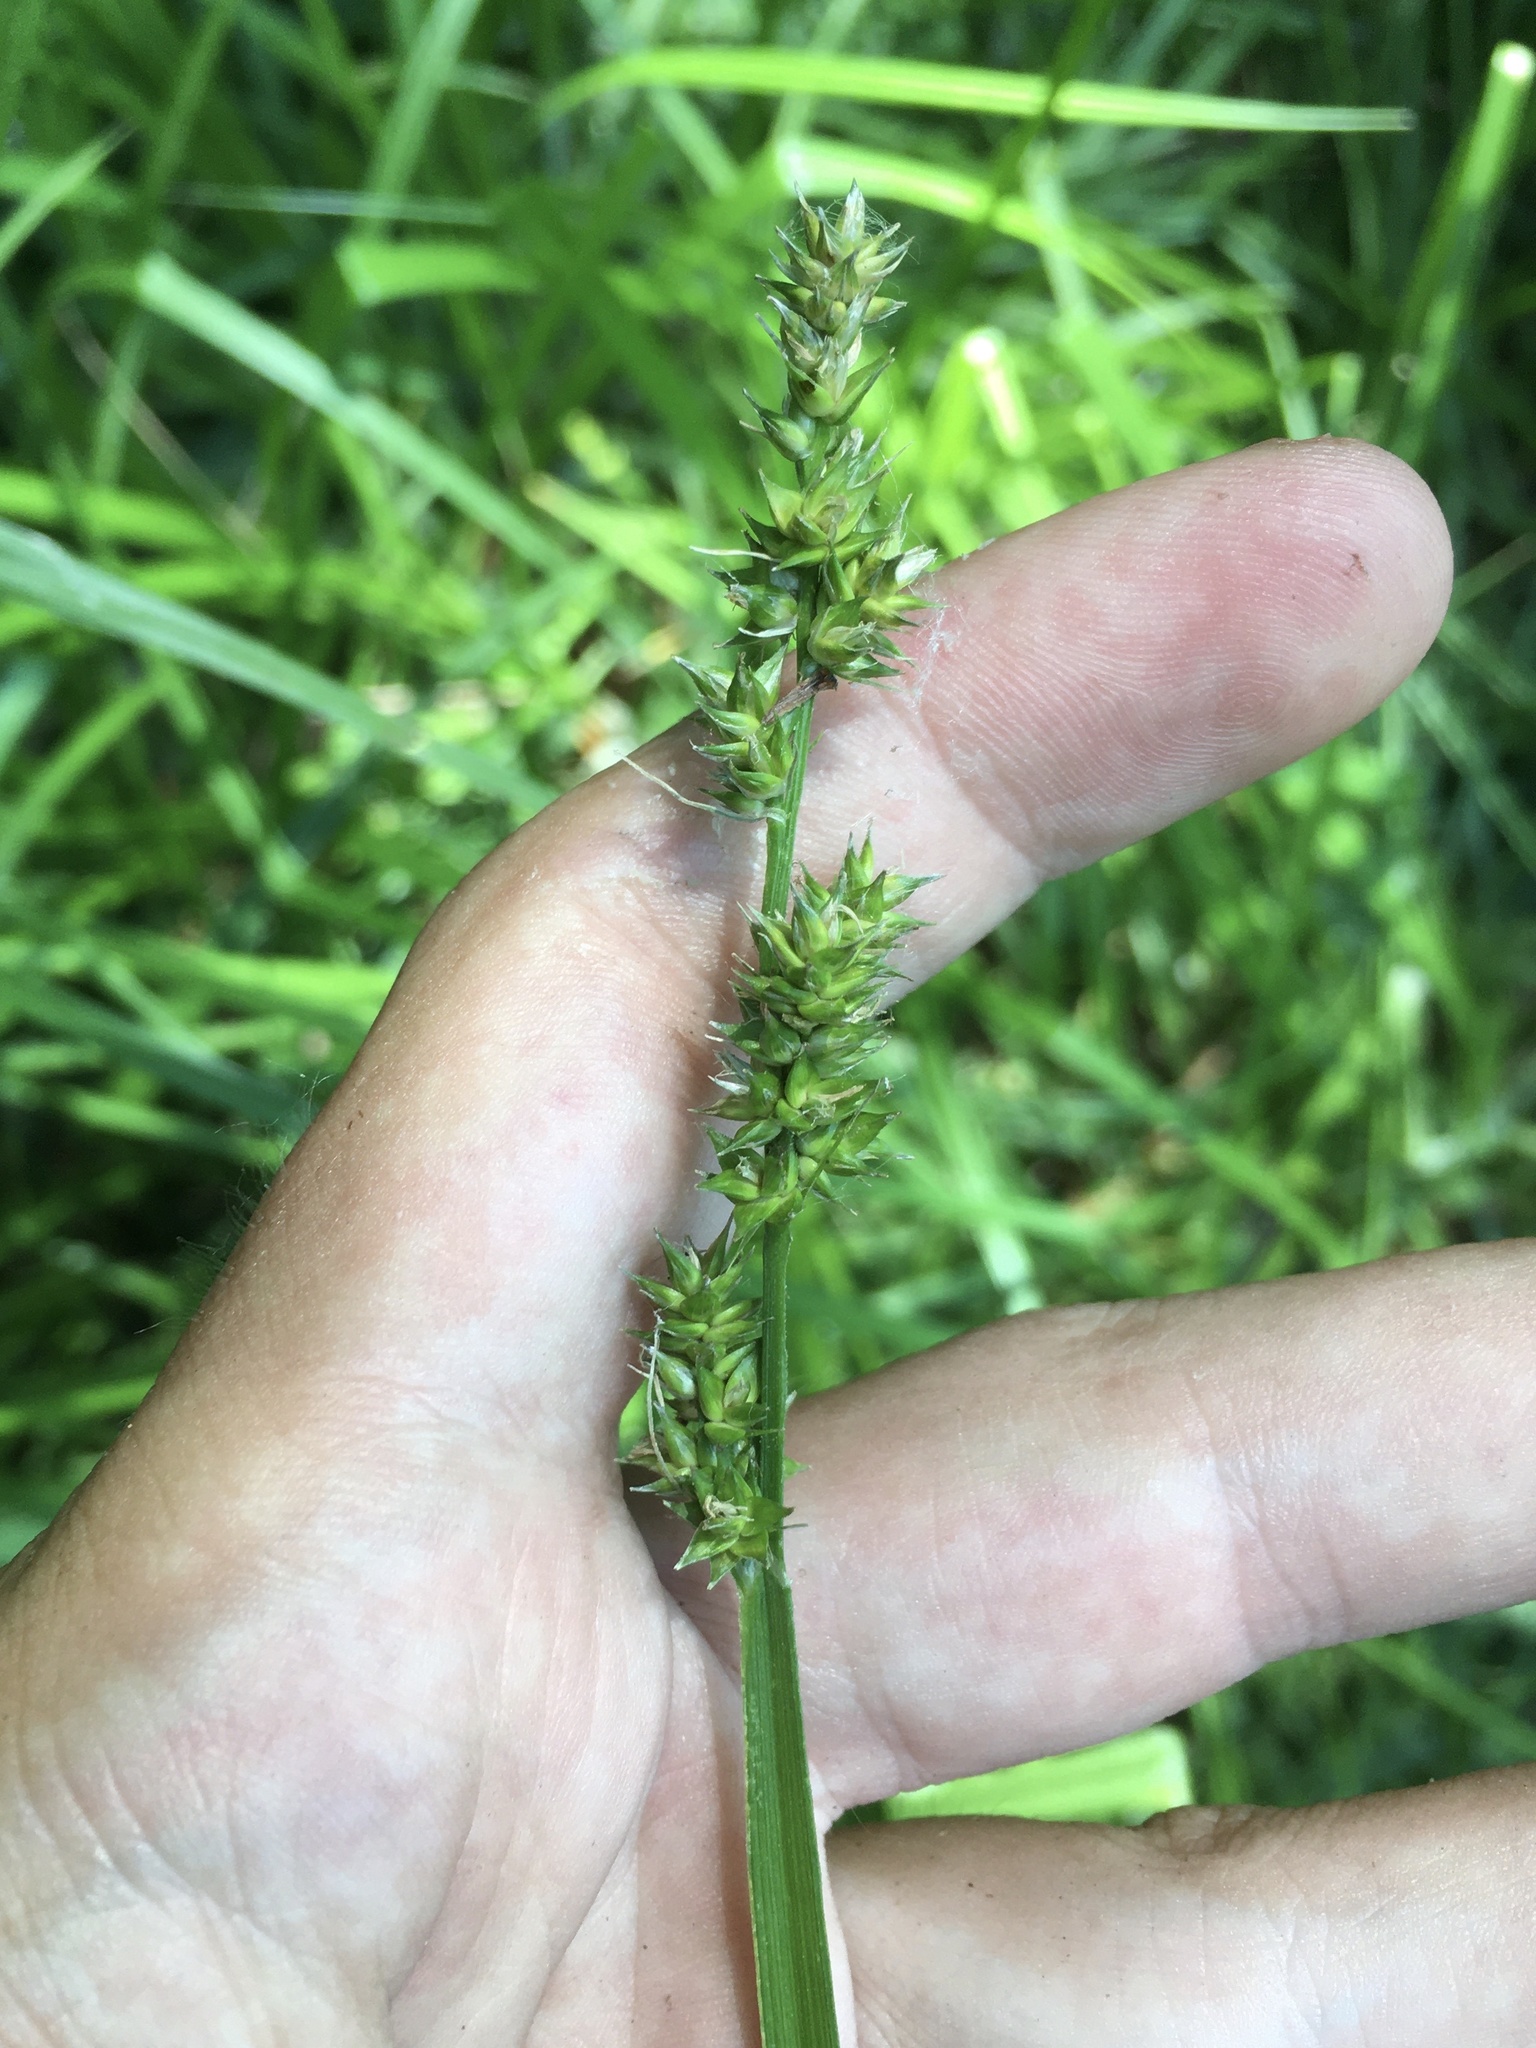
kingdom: Plantae
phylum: Tracheophyta
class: Liliopsida
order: Poales
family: Cyperaceae
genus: Carex
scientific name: Carex conjuncta
